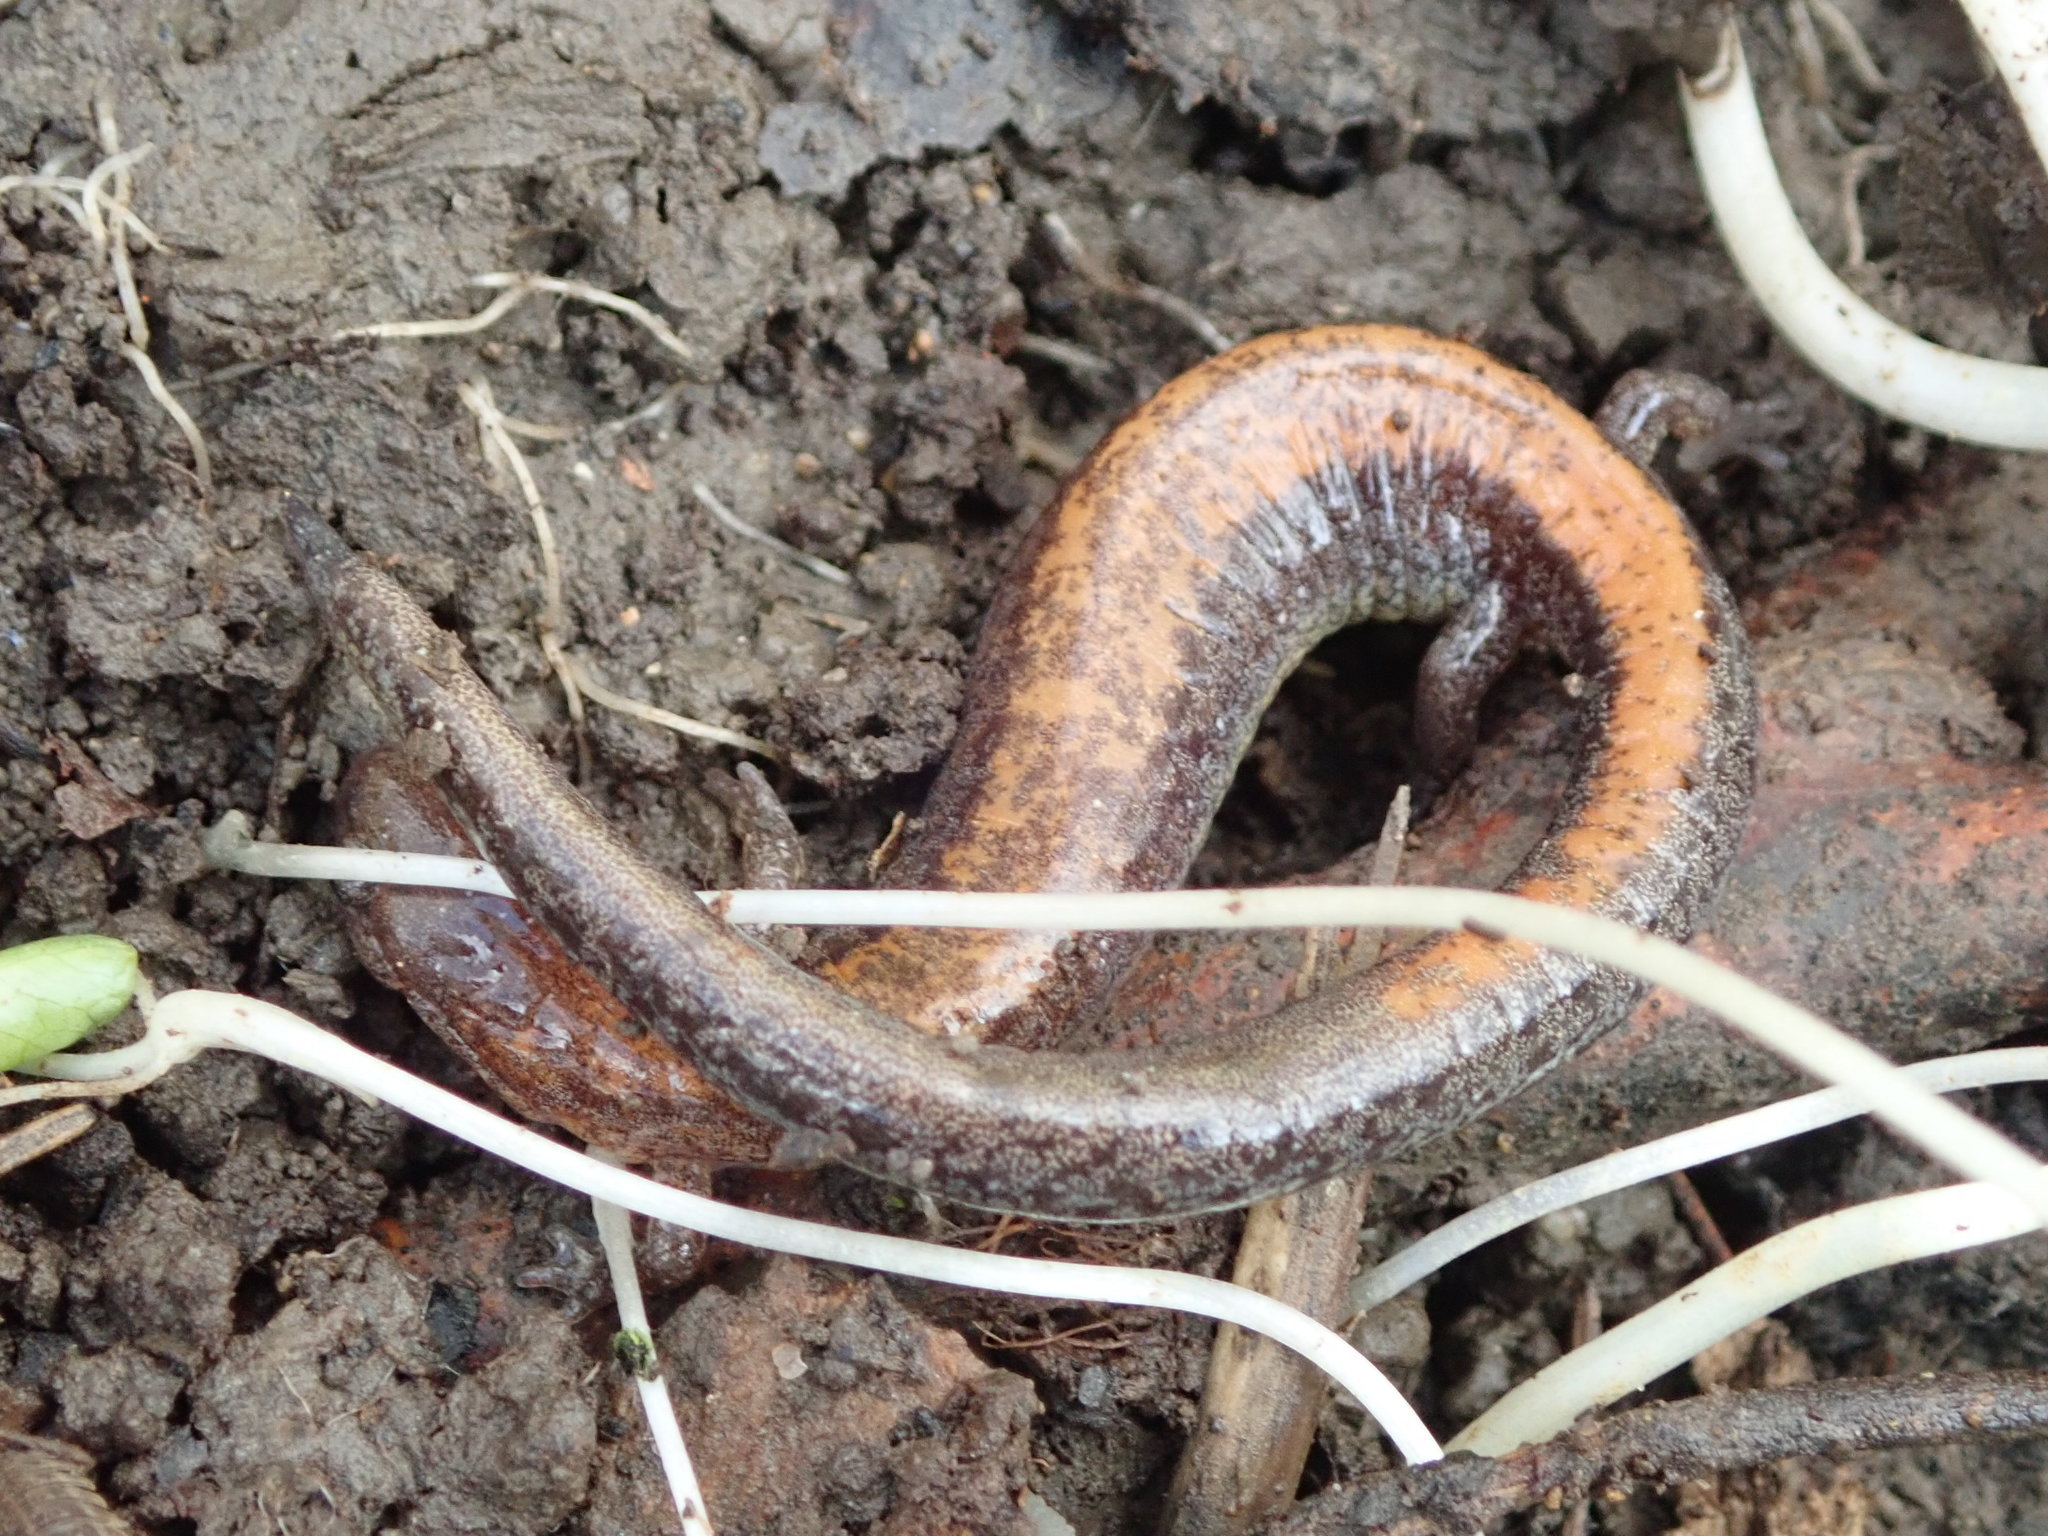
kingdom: Animalia
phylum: Chordata
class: Amphibia
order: Caudata
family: Plethodontidae
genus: Plethodon
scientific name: Plethodon cinereus
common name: Redback salamander
